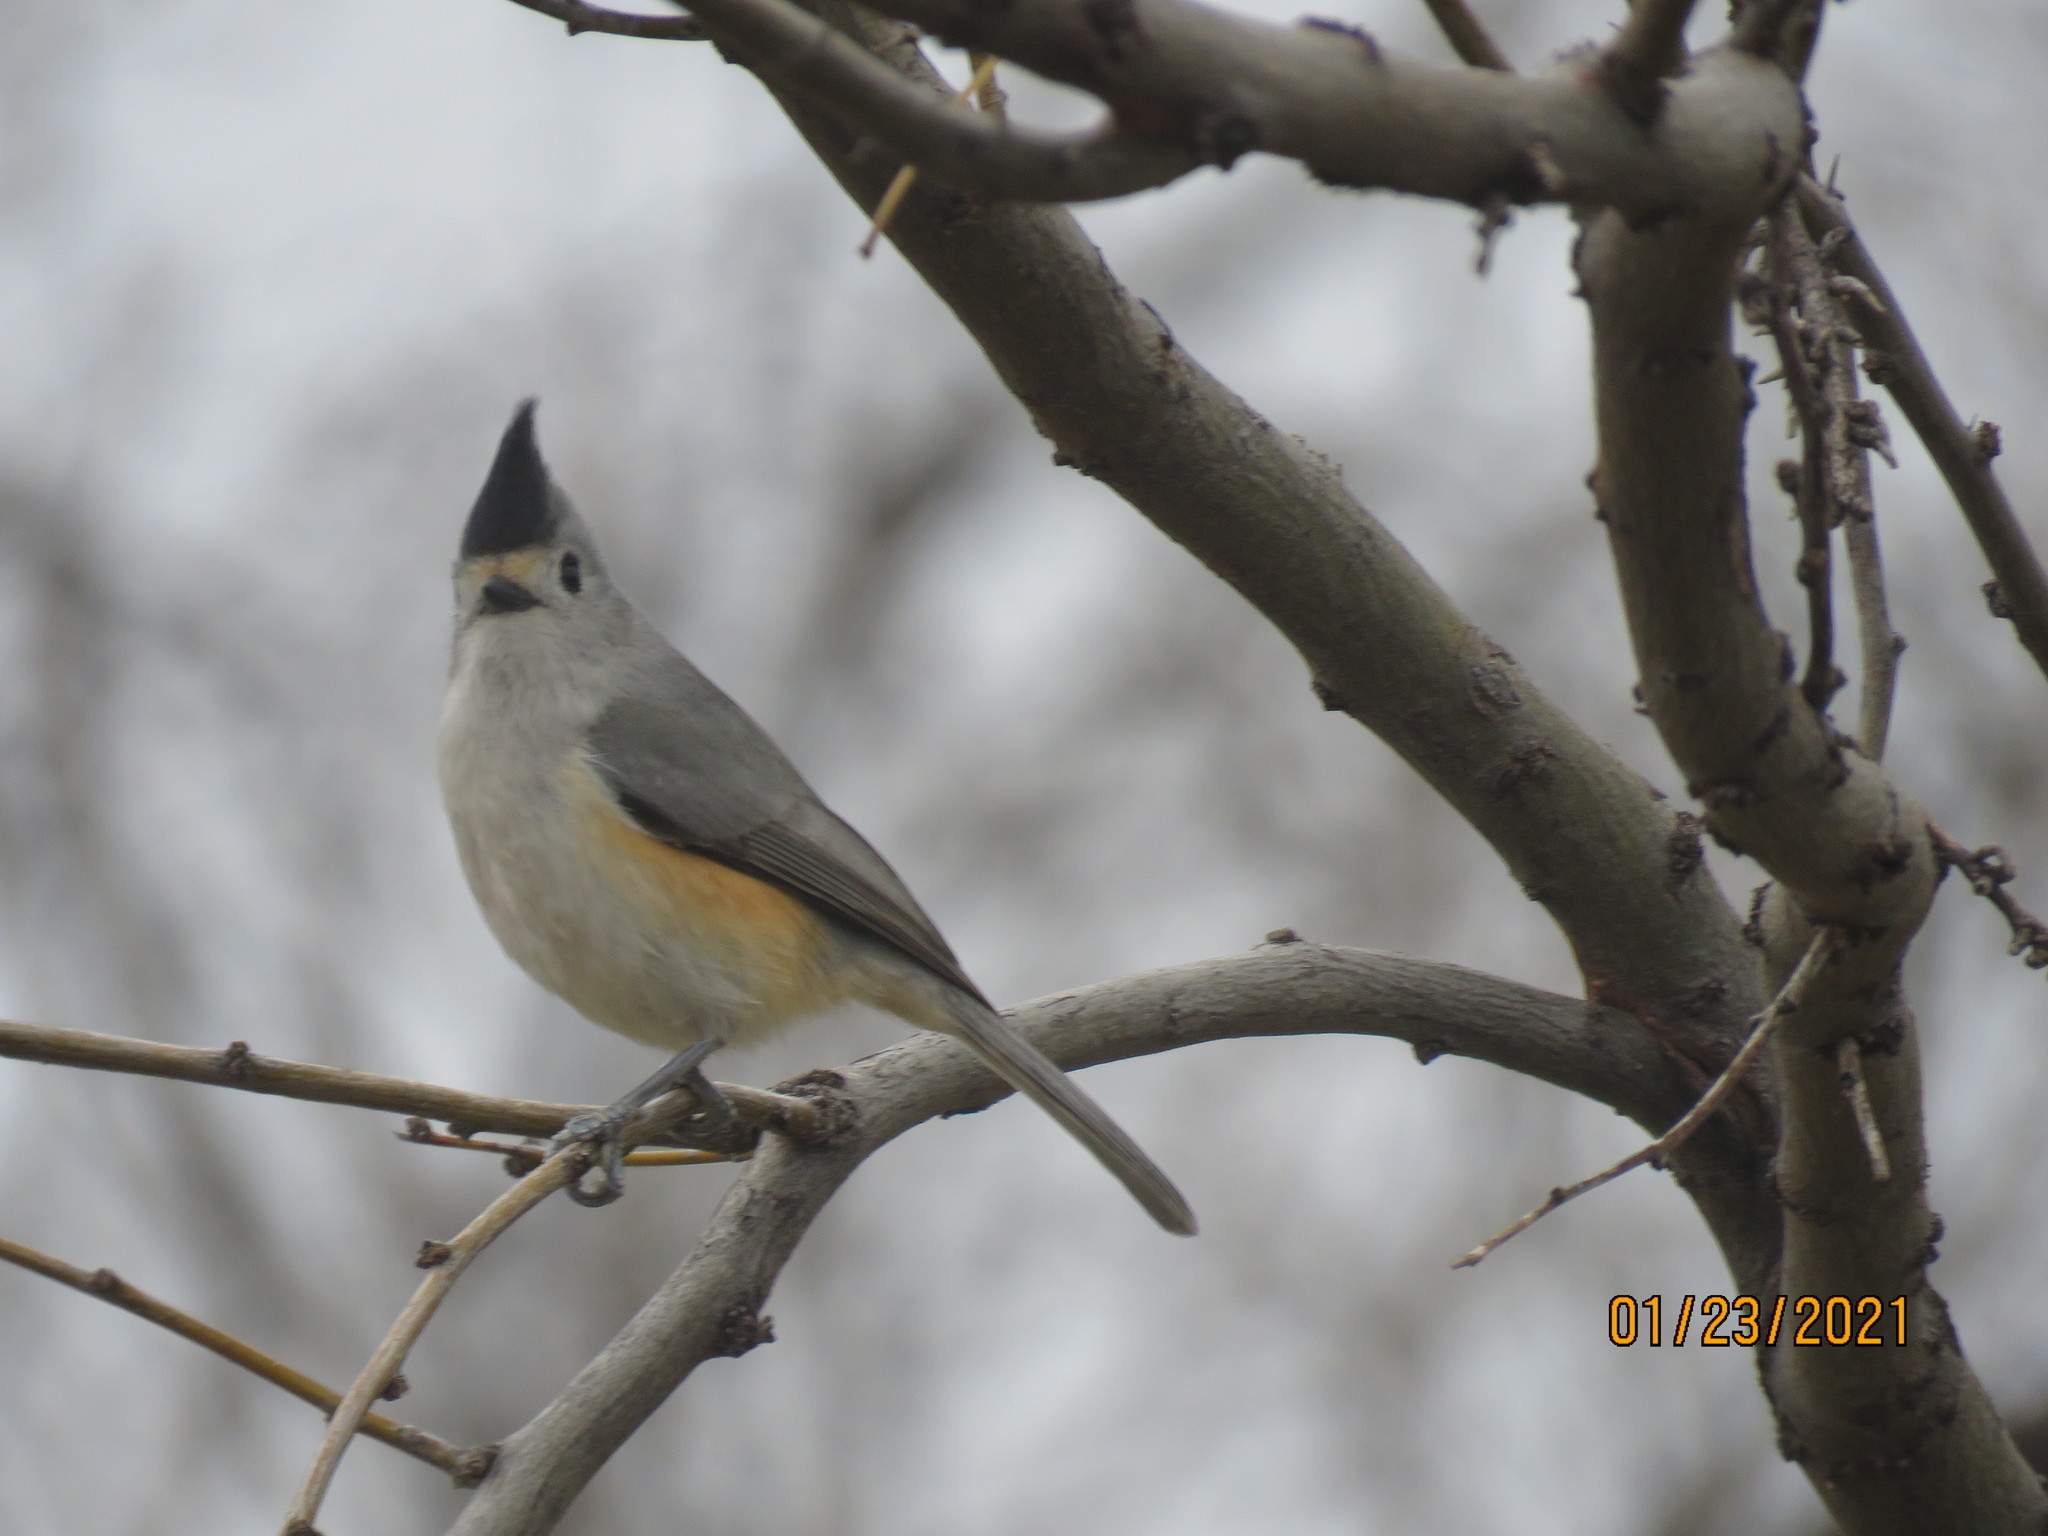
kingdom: Animalia
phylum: Chordata
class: Aves
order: Passeriformes
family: Paridae
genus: Baeolophus
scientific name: Baeolophus atricristatus
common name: Black-crested titmouse
